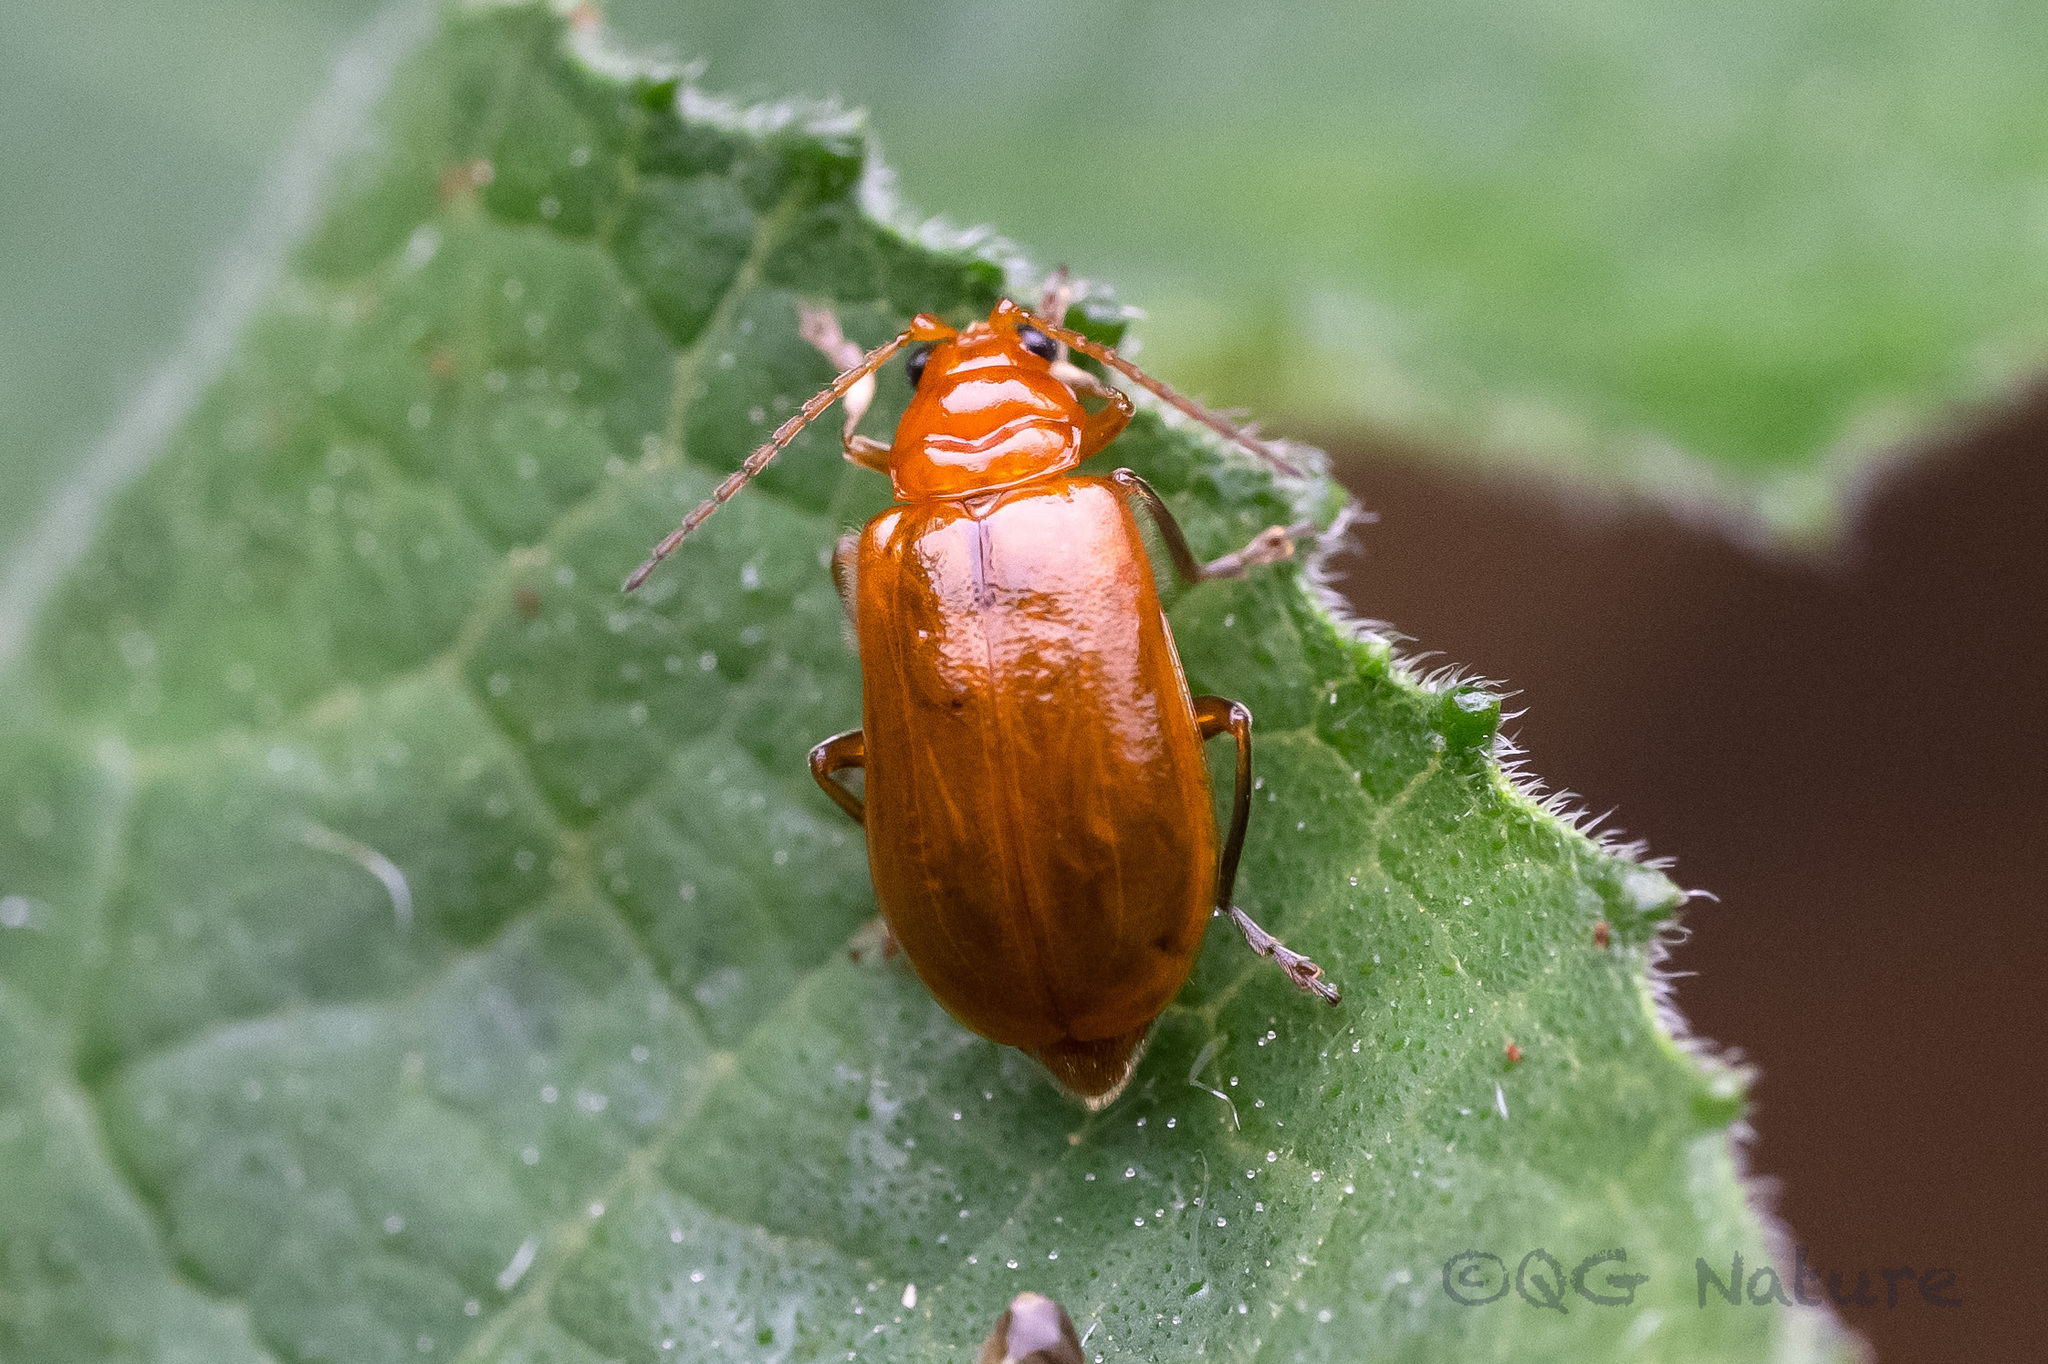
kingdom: Animalia
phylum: Arthropoda
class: Insecta
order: Coleoptera
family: Chrysomelidae
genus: Aulacophora
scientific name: Aulacophora indica
